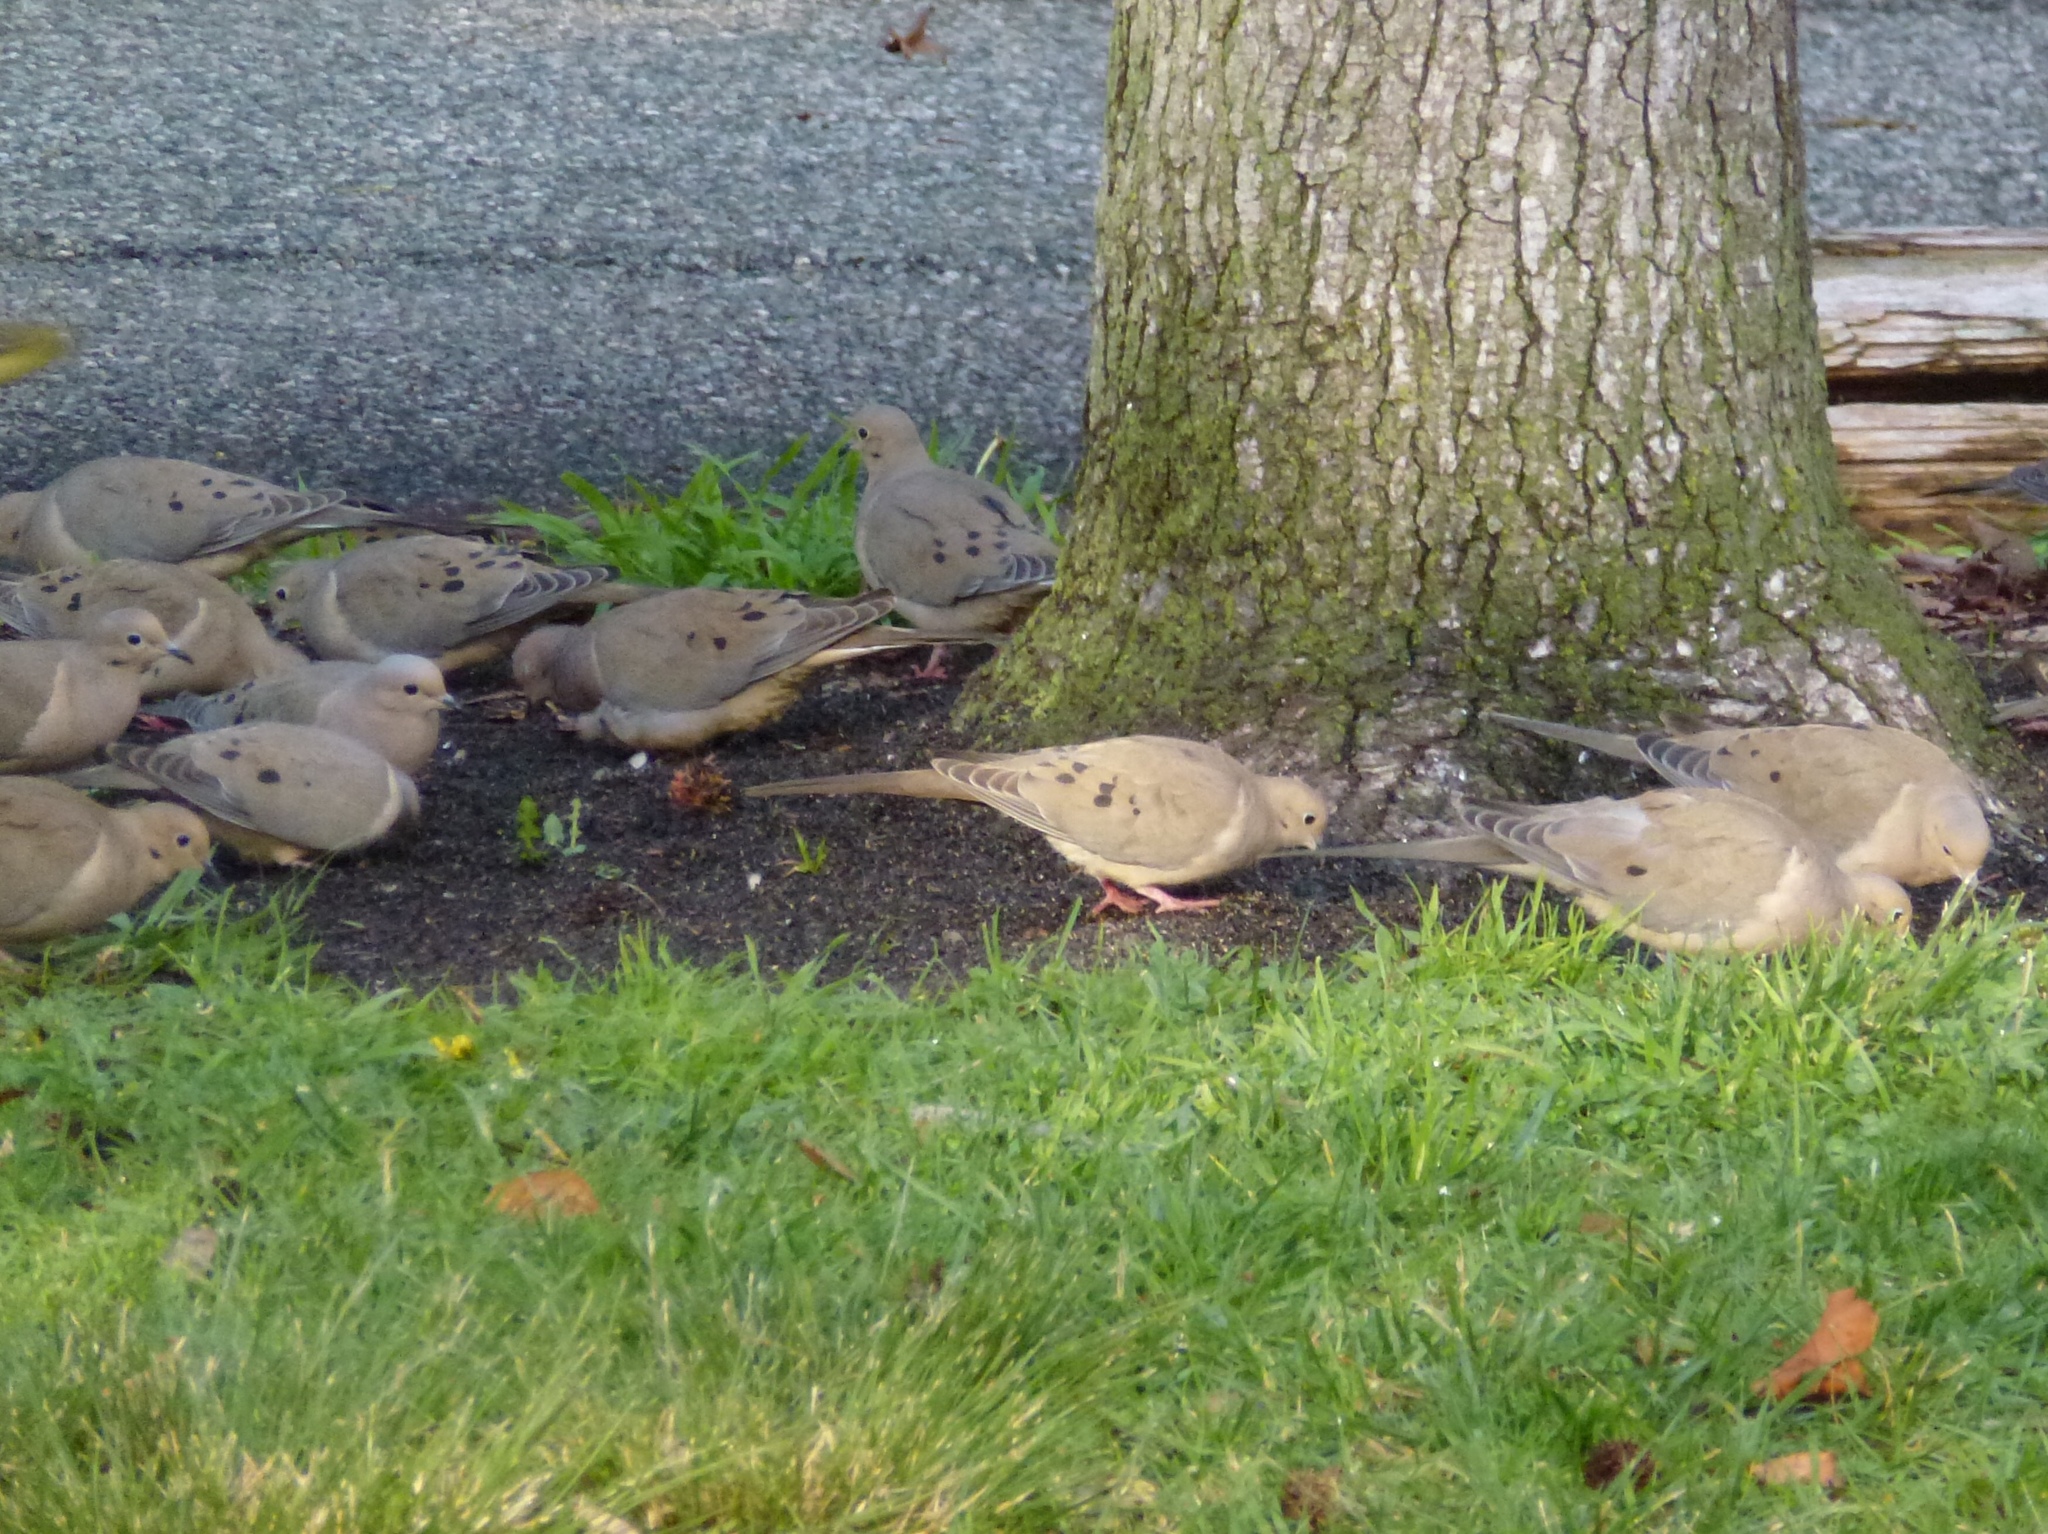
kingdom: Animalia
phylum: Chordata
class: Aves
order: Columbiformes
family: Columbidae
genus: Zenaida
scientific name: Zenaida macroura
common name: Mourning dove
